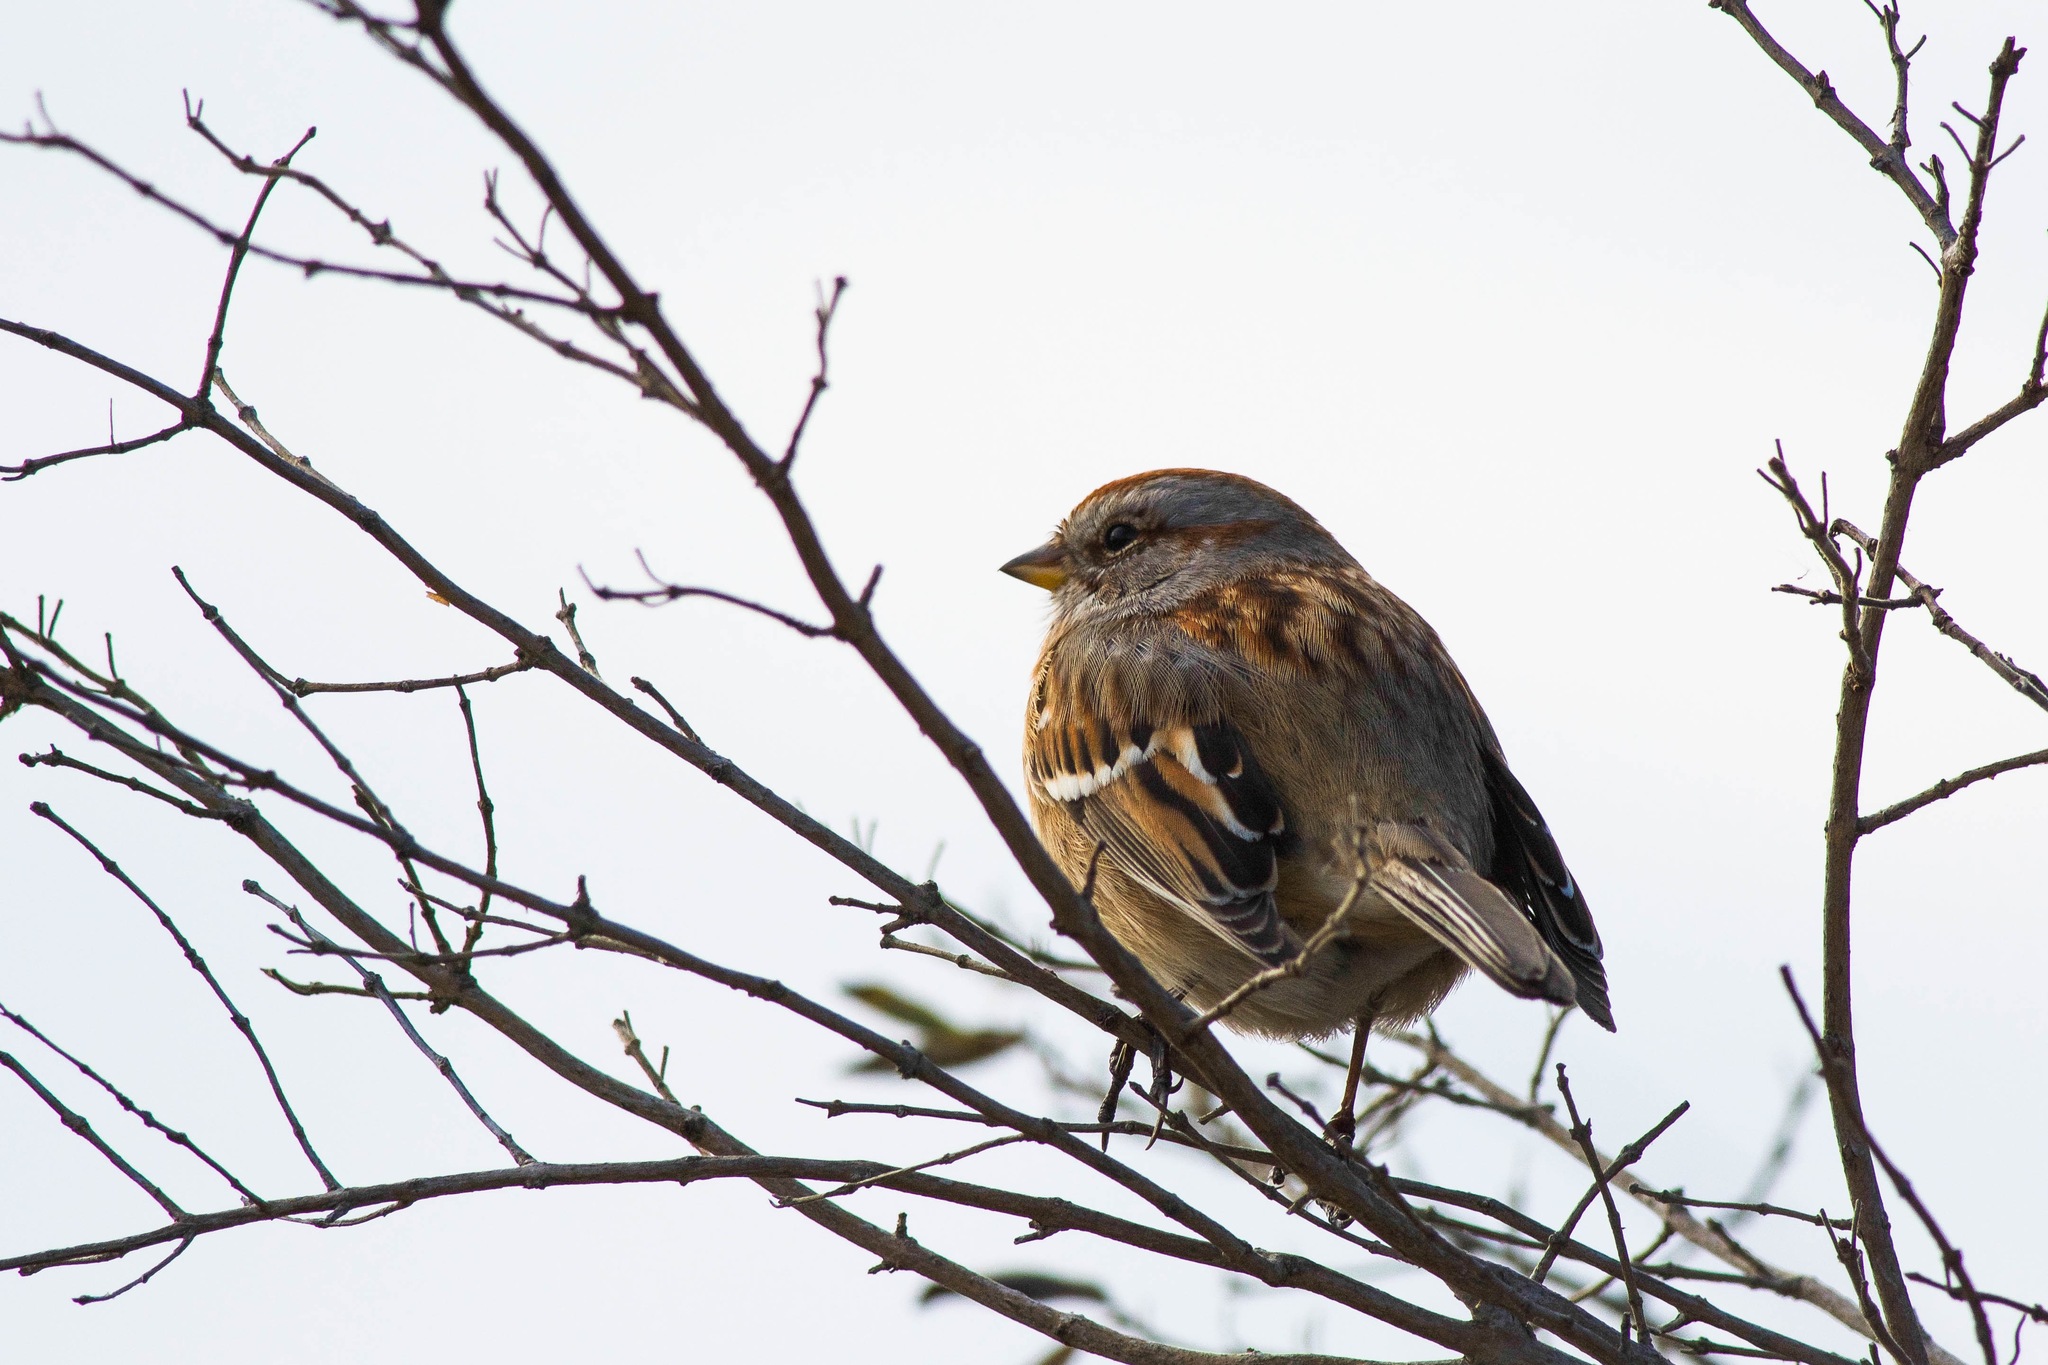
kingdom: Animalia
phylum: Chordata
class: Aves
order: Passeriformes
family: Passerellidae
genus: Spizelloides
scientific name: Spizelloides arborea
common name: American tree sparrow
